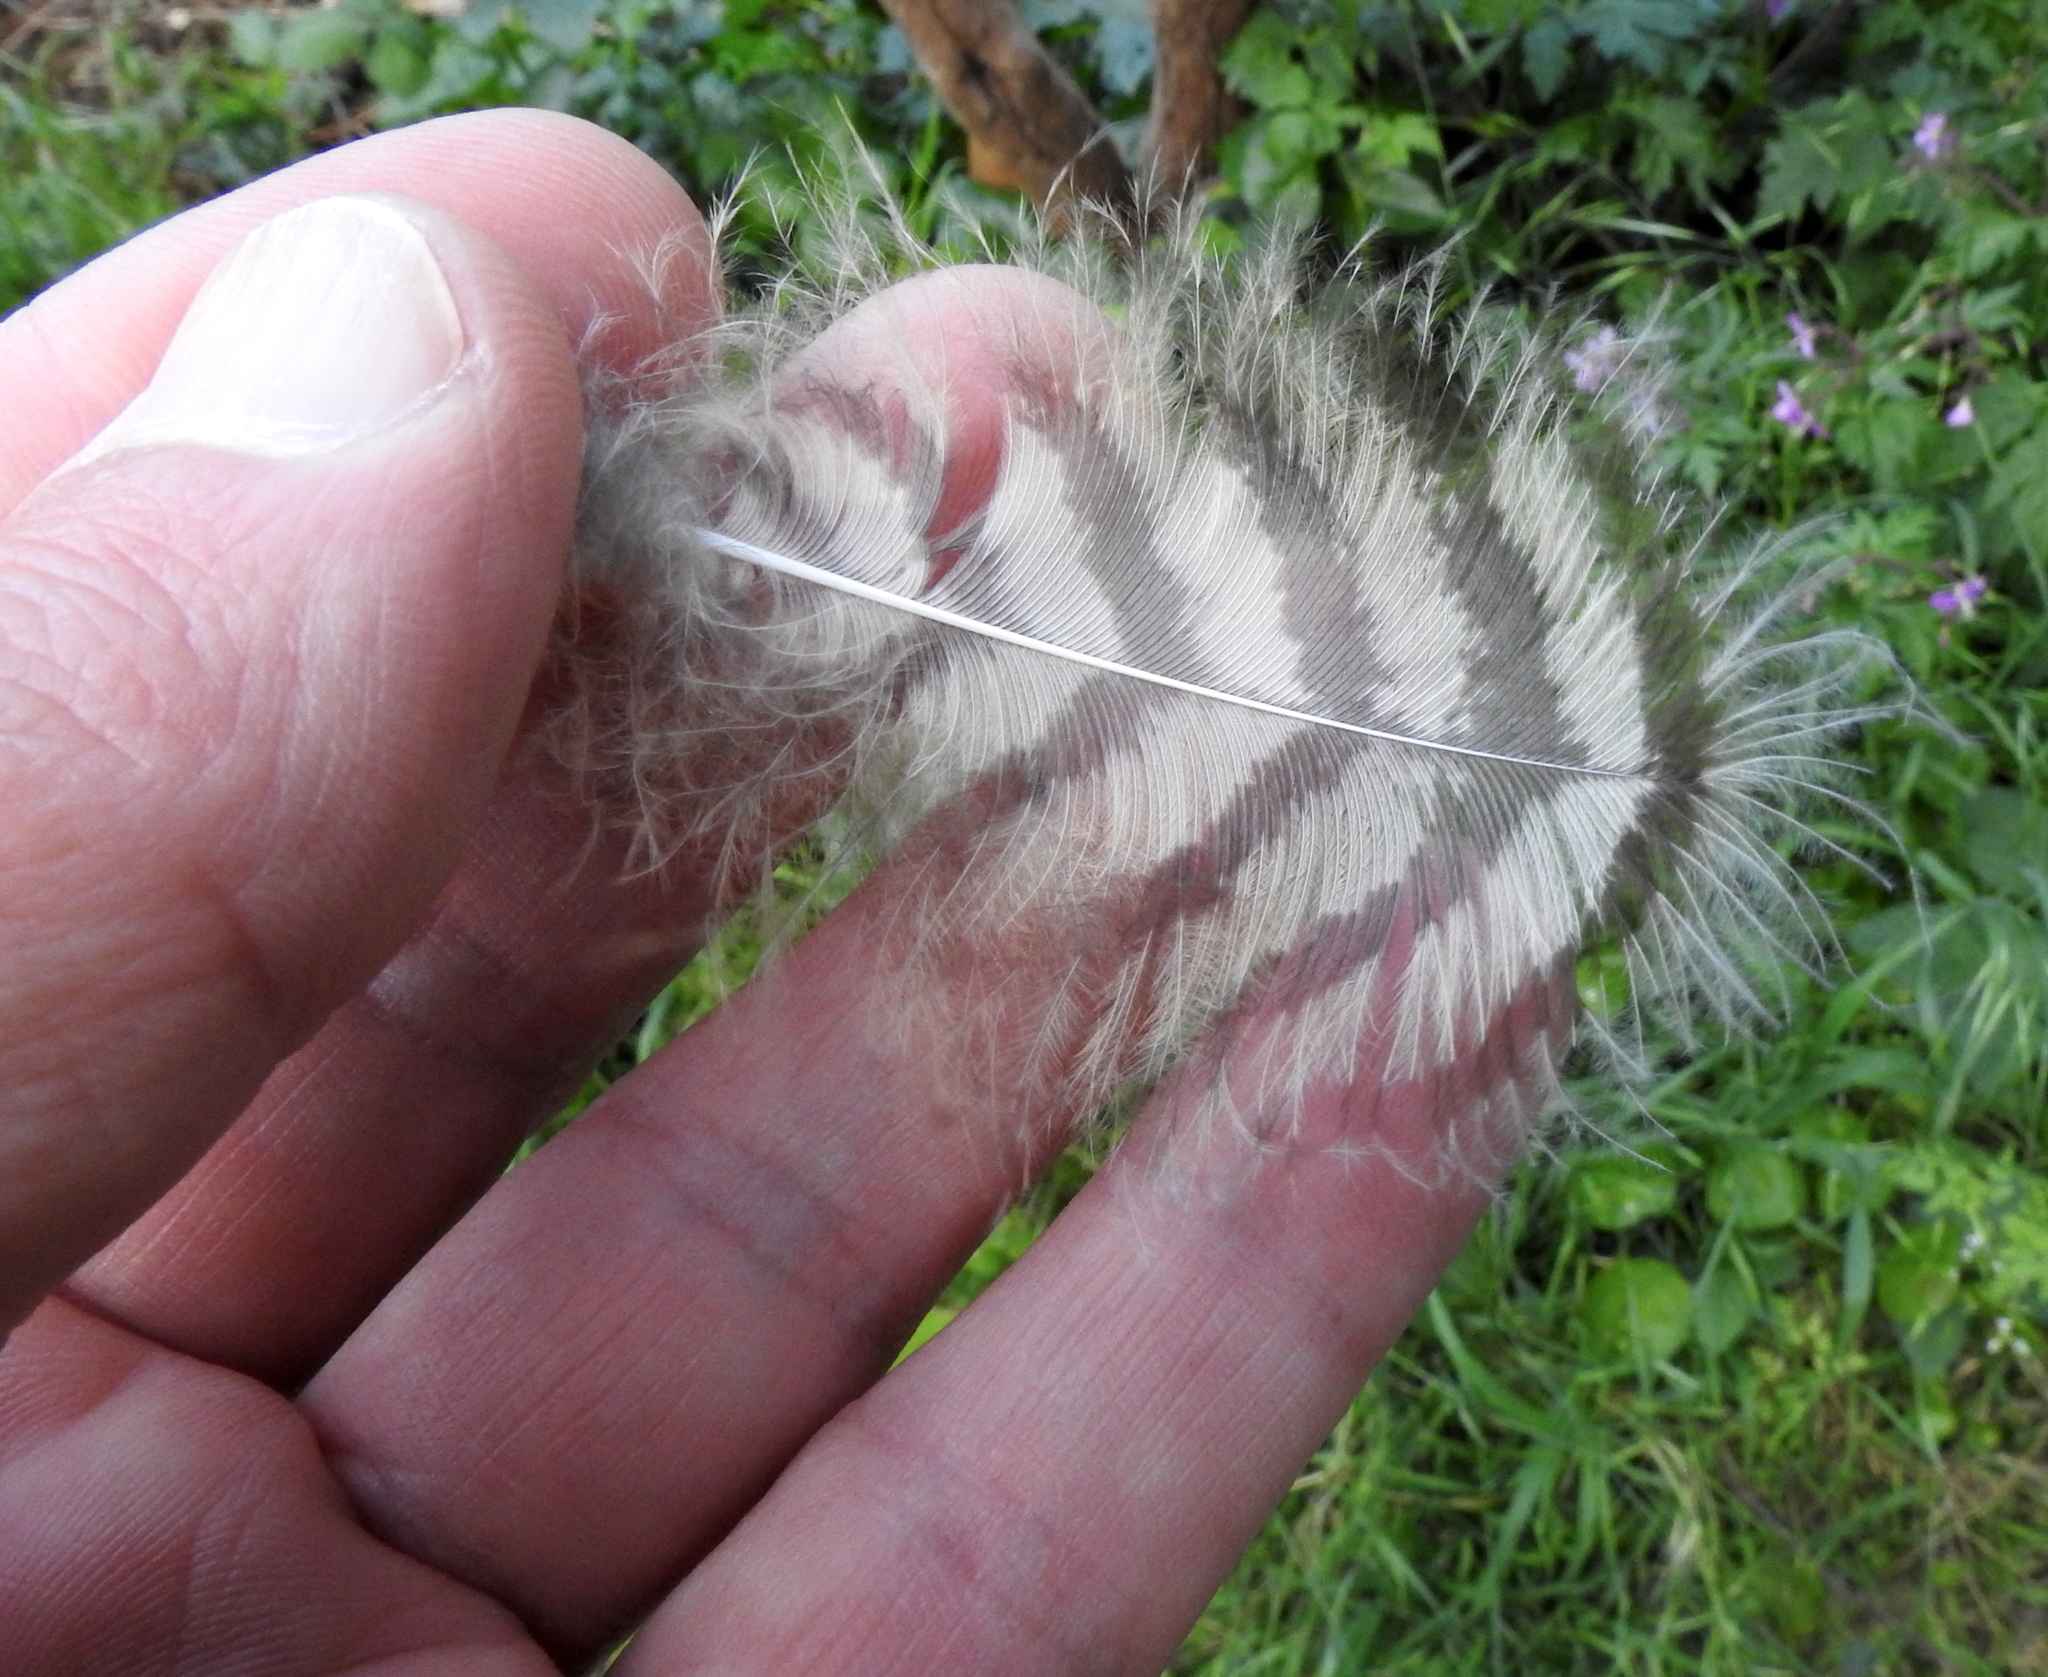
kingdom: Animalia
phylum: Chordata
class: Aves
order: Strigiformes
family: Strigidae
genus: Bubo
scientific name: Bubo virginianus
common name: Great horned owl
